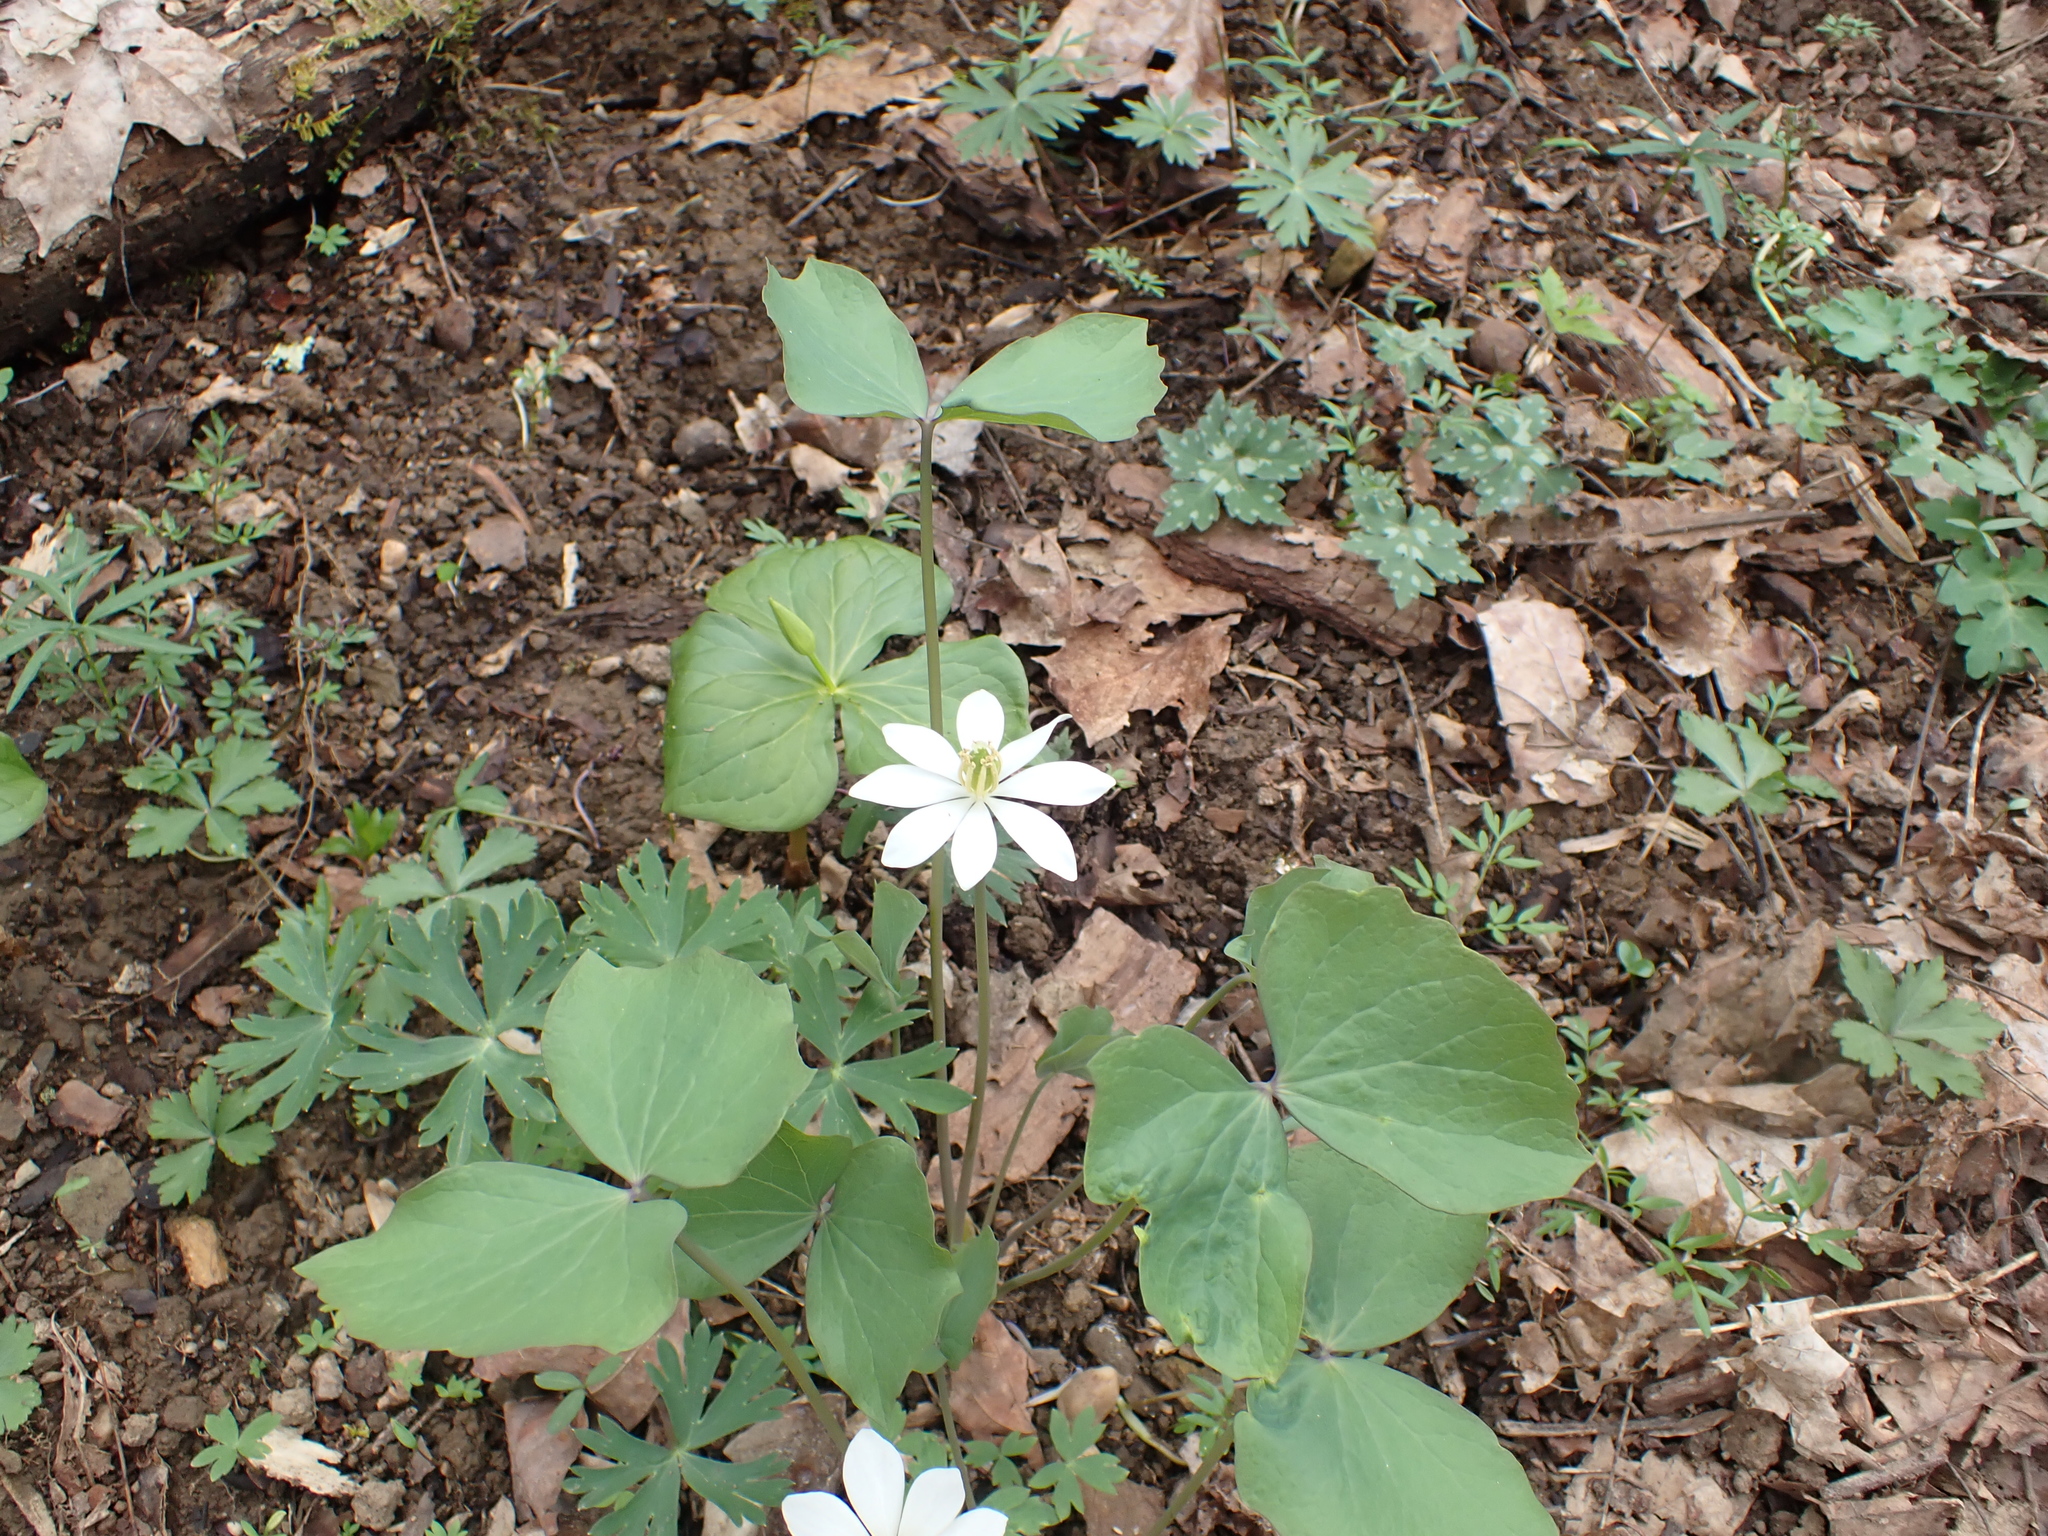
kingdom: Plantae
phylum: Tracheophyta
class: Magnoliopsida
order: Ranunculales
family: Berberidaceae
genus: Jeffersonia
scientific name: Jeffersonia diphylla
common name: Rheumatism-root
